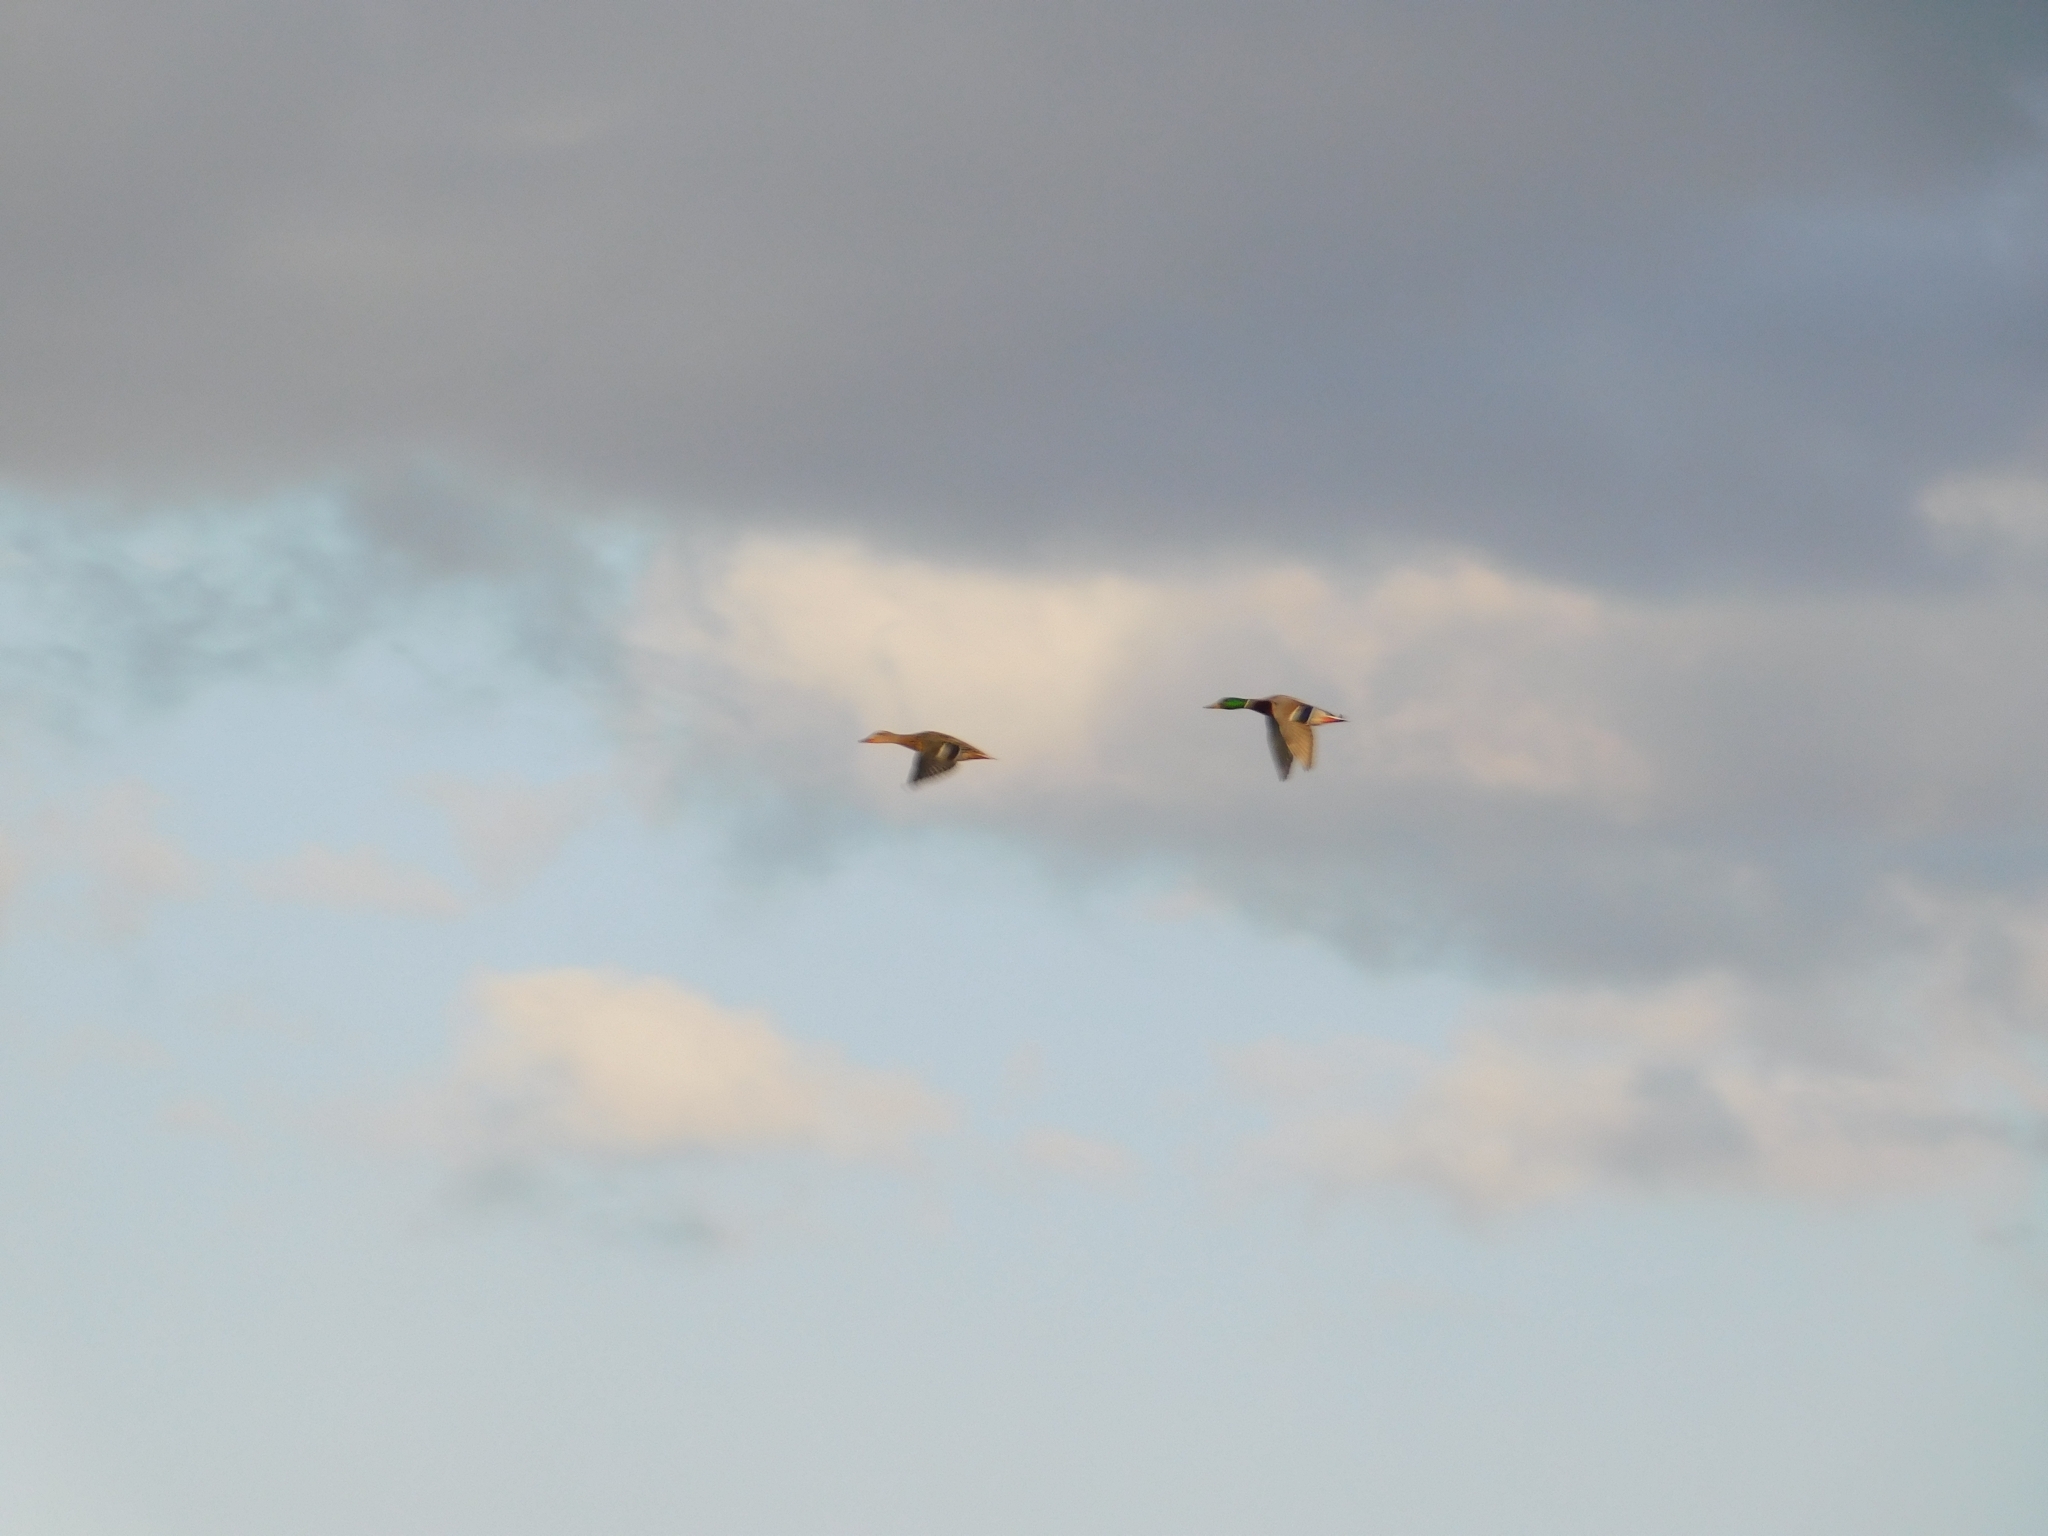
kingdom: Animalia
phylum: Chordata
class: Aves
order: Anseriformes
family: Anatidae
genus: Anas
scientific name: Anas platyrhynchos
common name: Mallard
